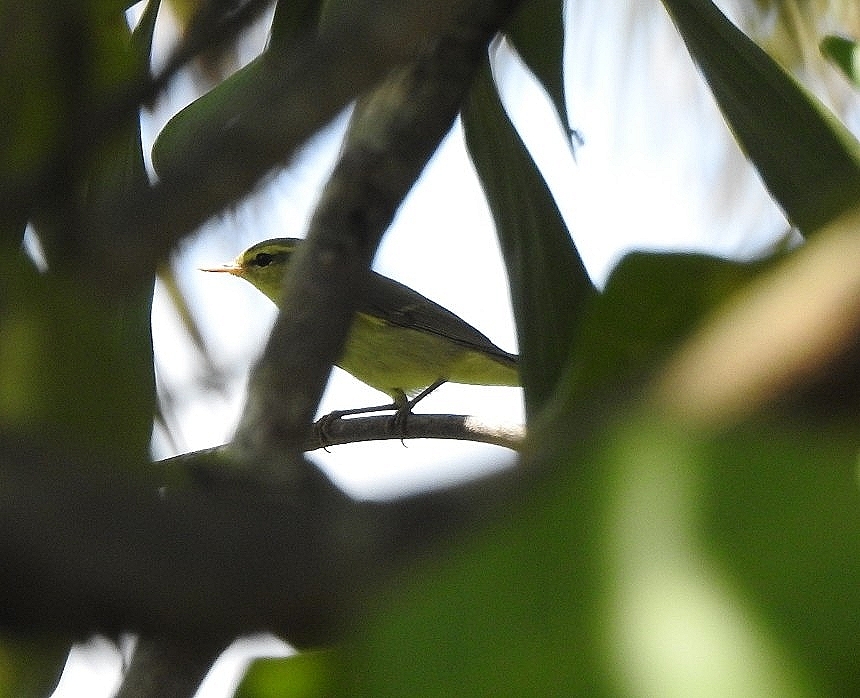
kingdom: Animalia
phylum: Chordata
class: Aves
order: Passeriformes
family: Phylloscopidae
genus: Phylloscopus
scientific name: Phylloscopus nitidus
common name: Green warbler
